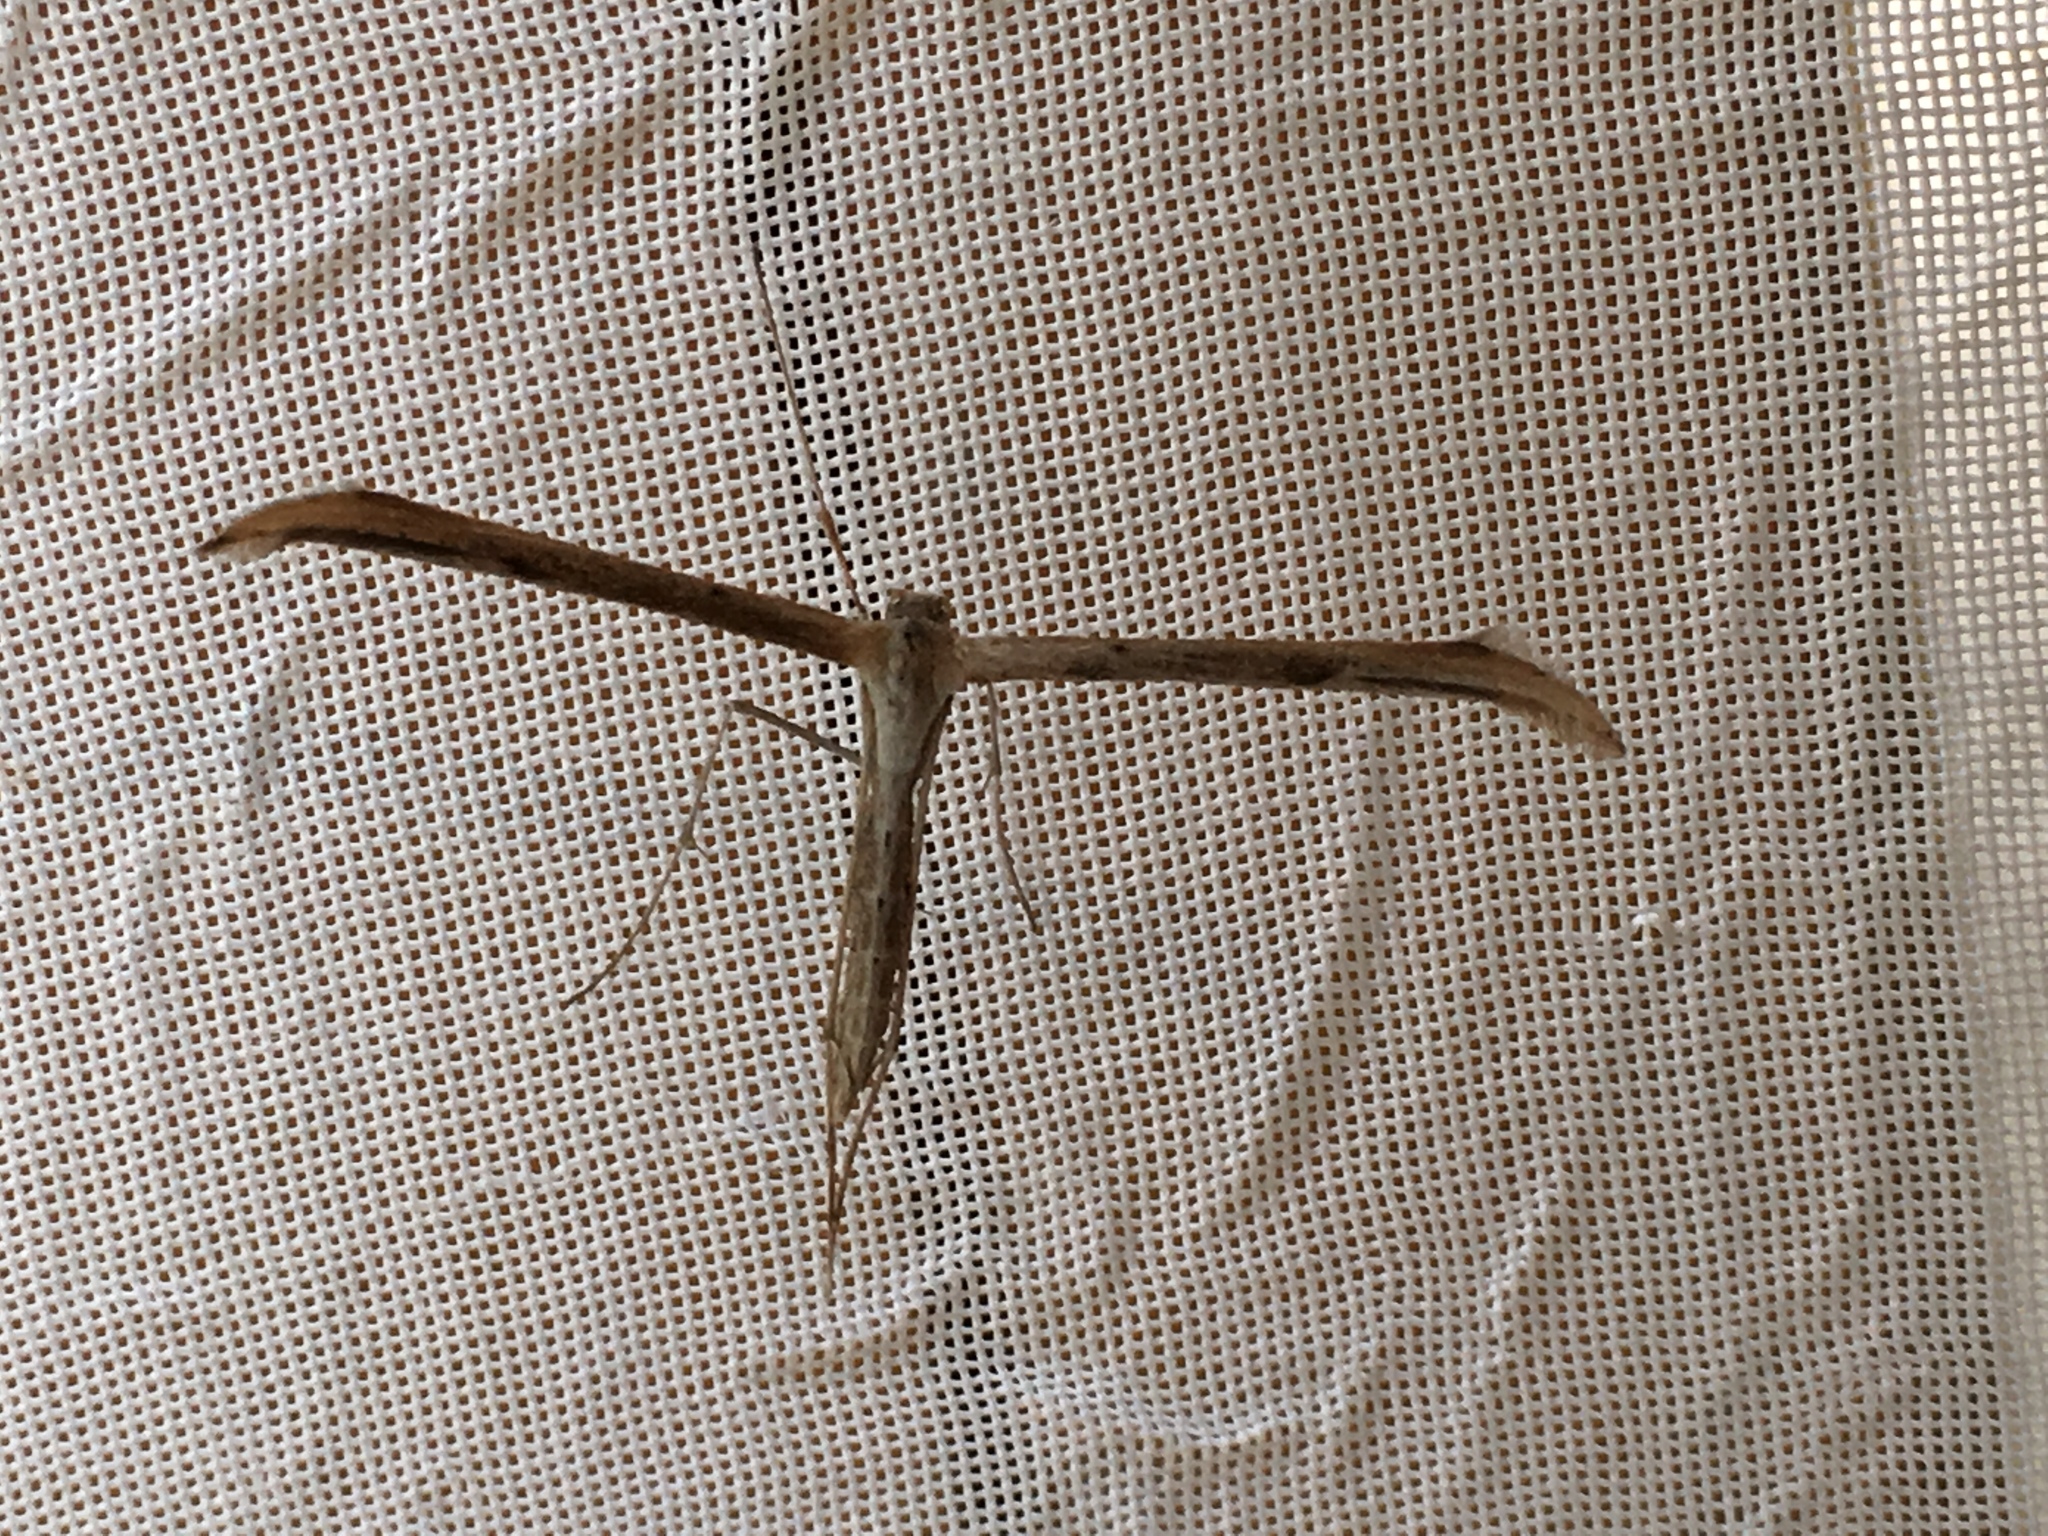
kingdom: Animalia
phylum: Arthropoda
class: Insecta
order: Lepidoptera
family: Pterophoridae
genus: Emmelina
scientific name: Emmelina monodactyla
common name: Common plume
